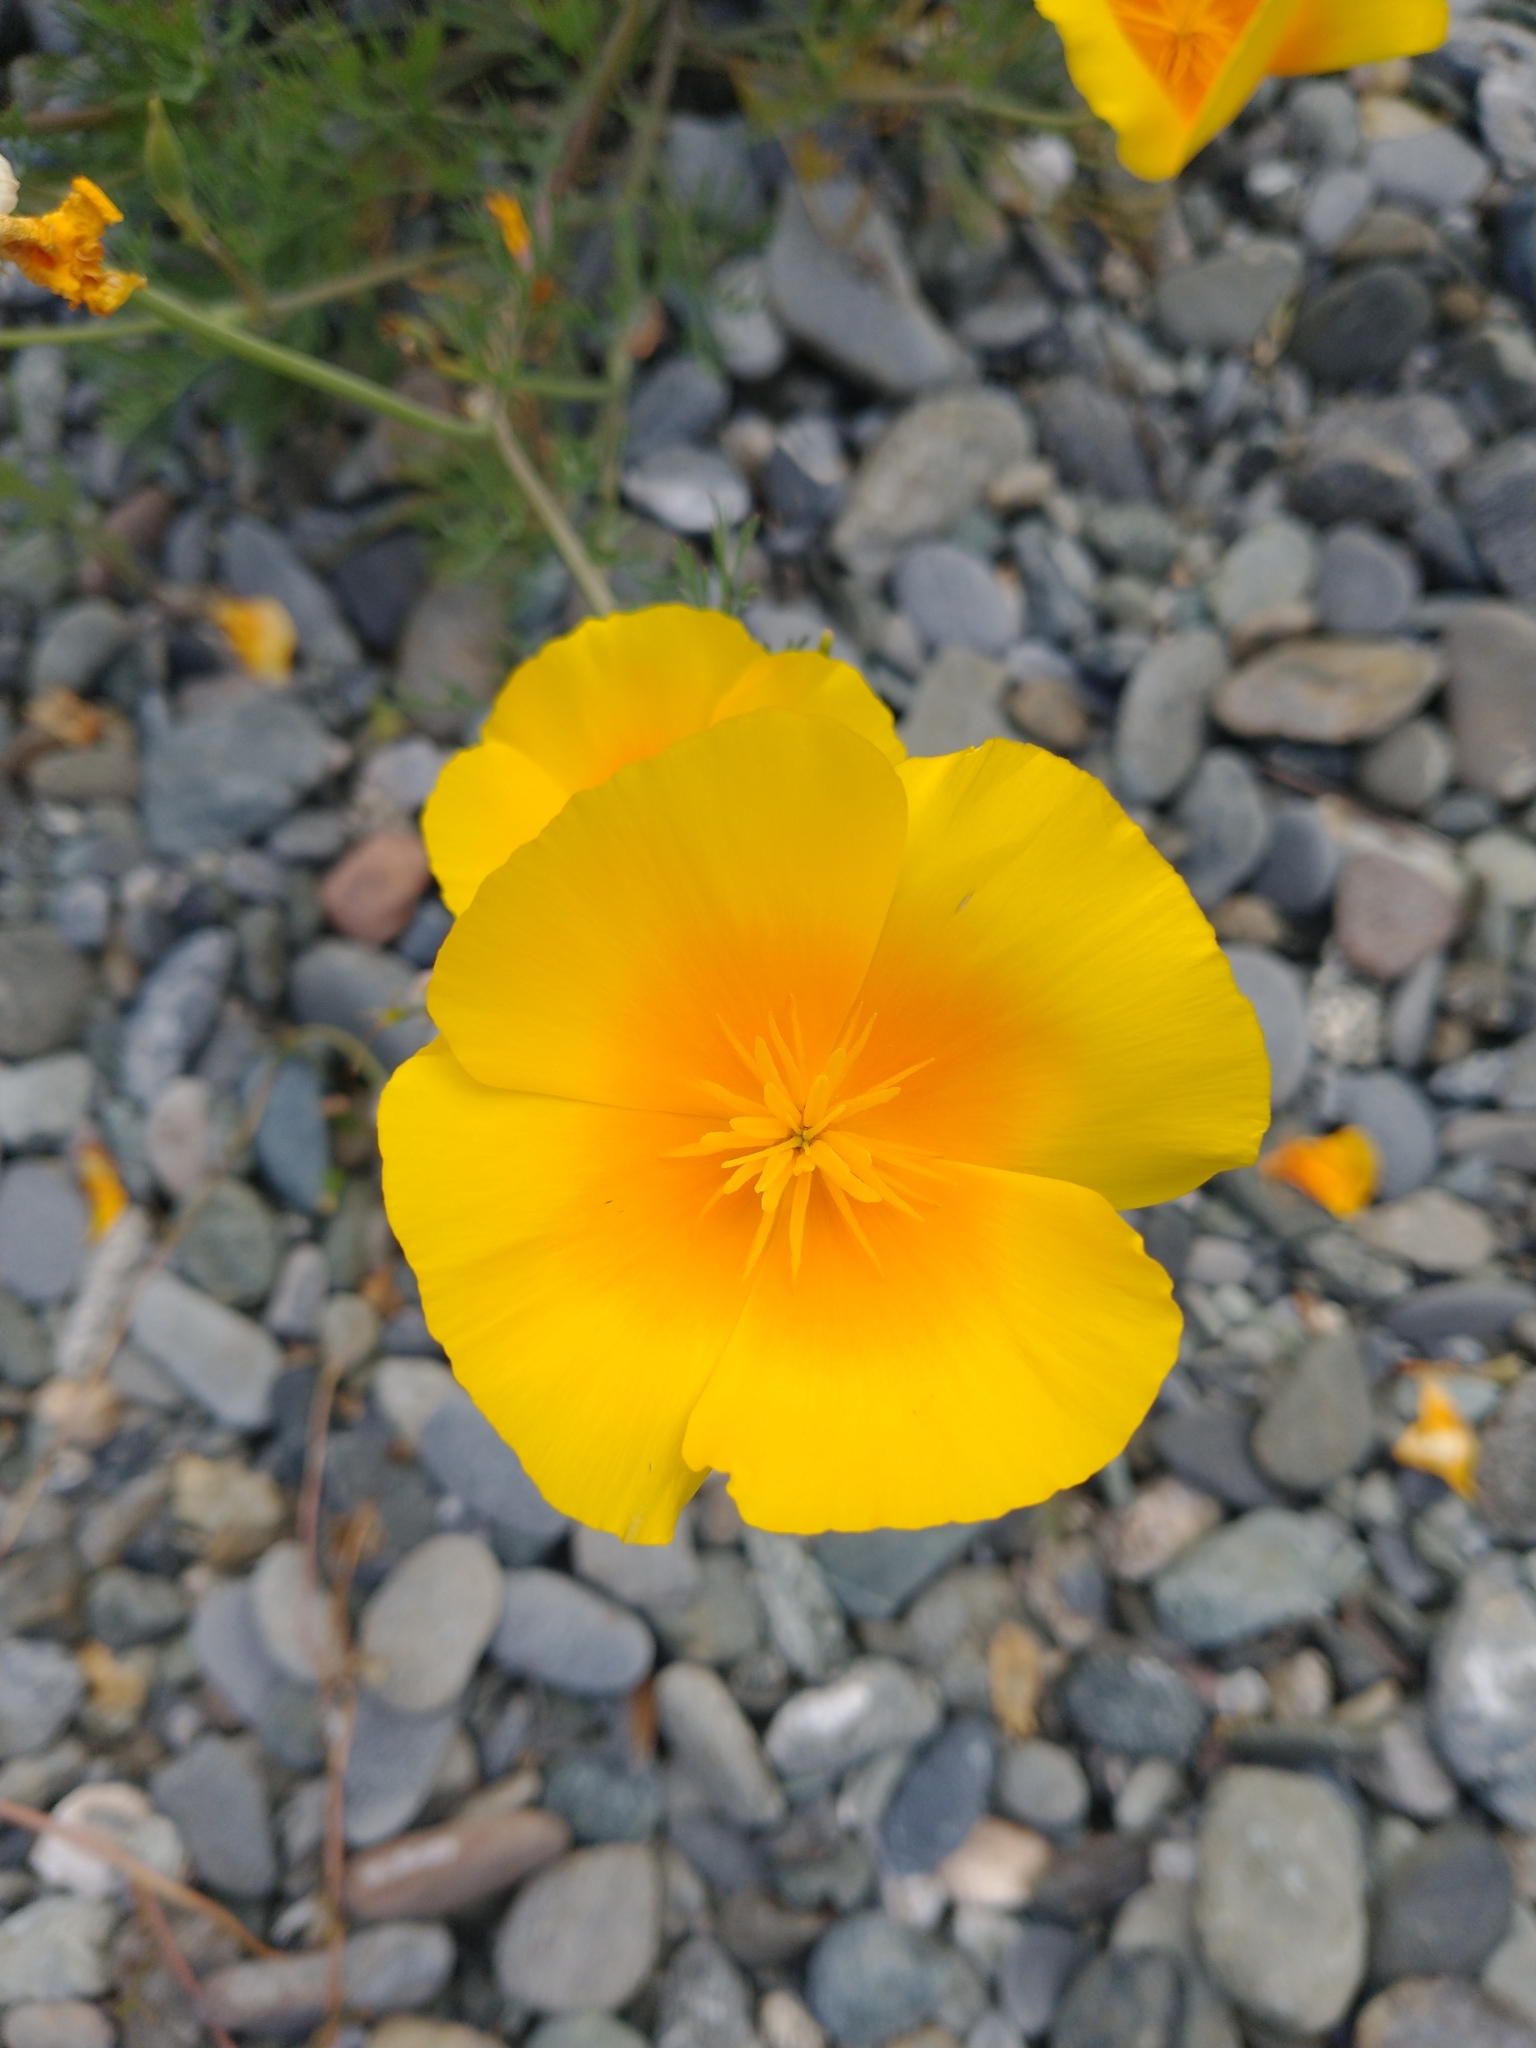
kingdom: Plantae
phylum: Tracheophyta
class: Magnoliopsida
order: Ranunculales
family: Papaveraceae
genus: Eschscholzia
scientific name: Eschscholzia californica
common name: California poppy
